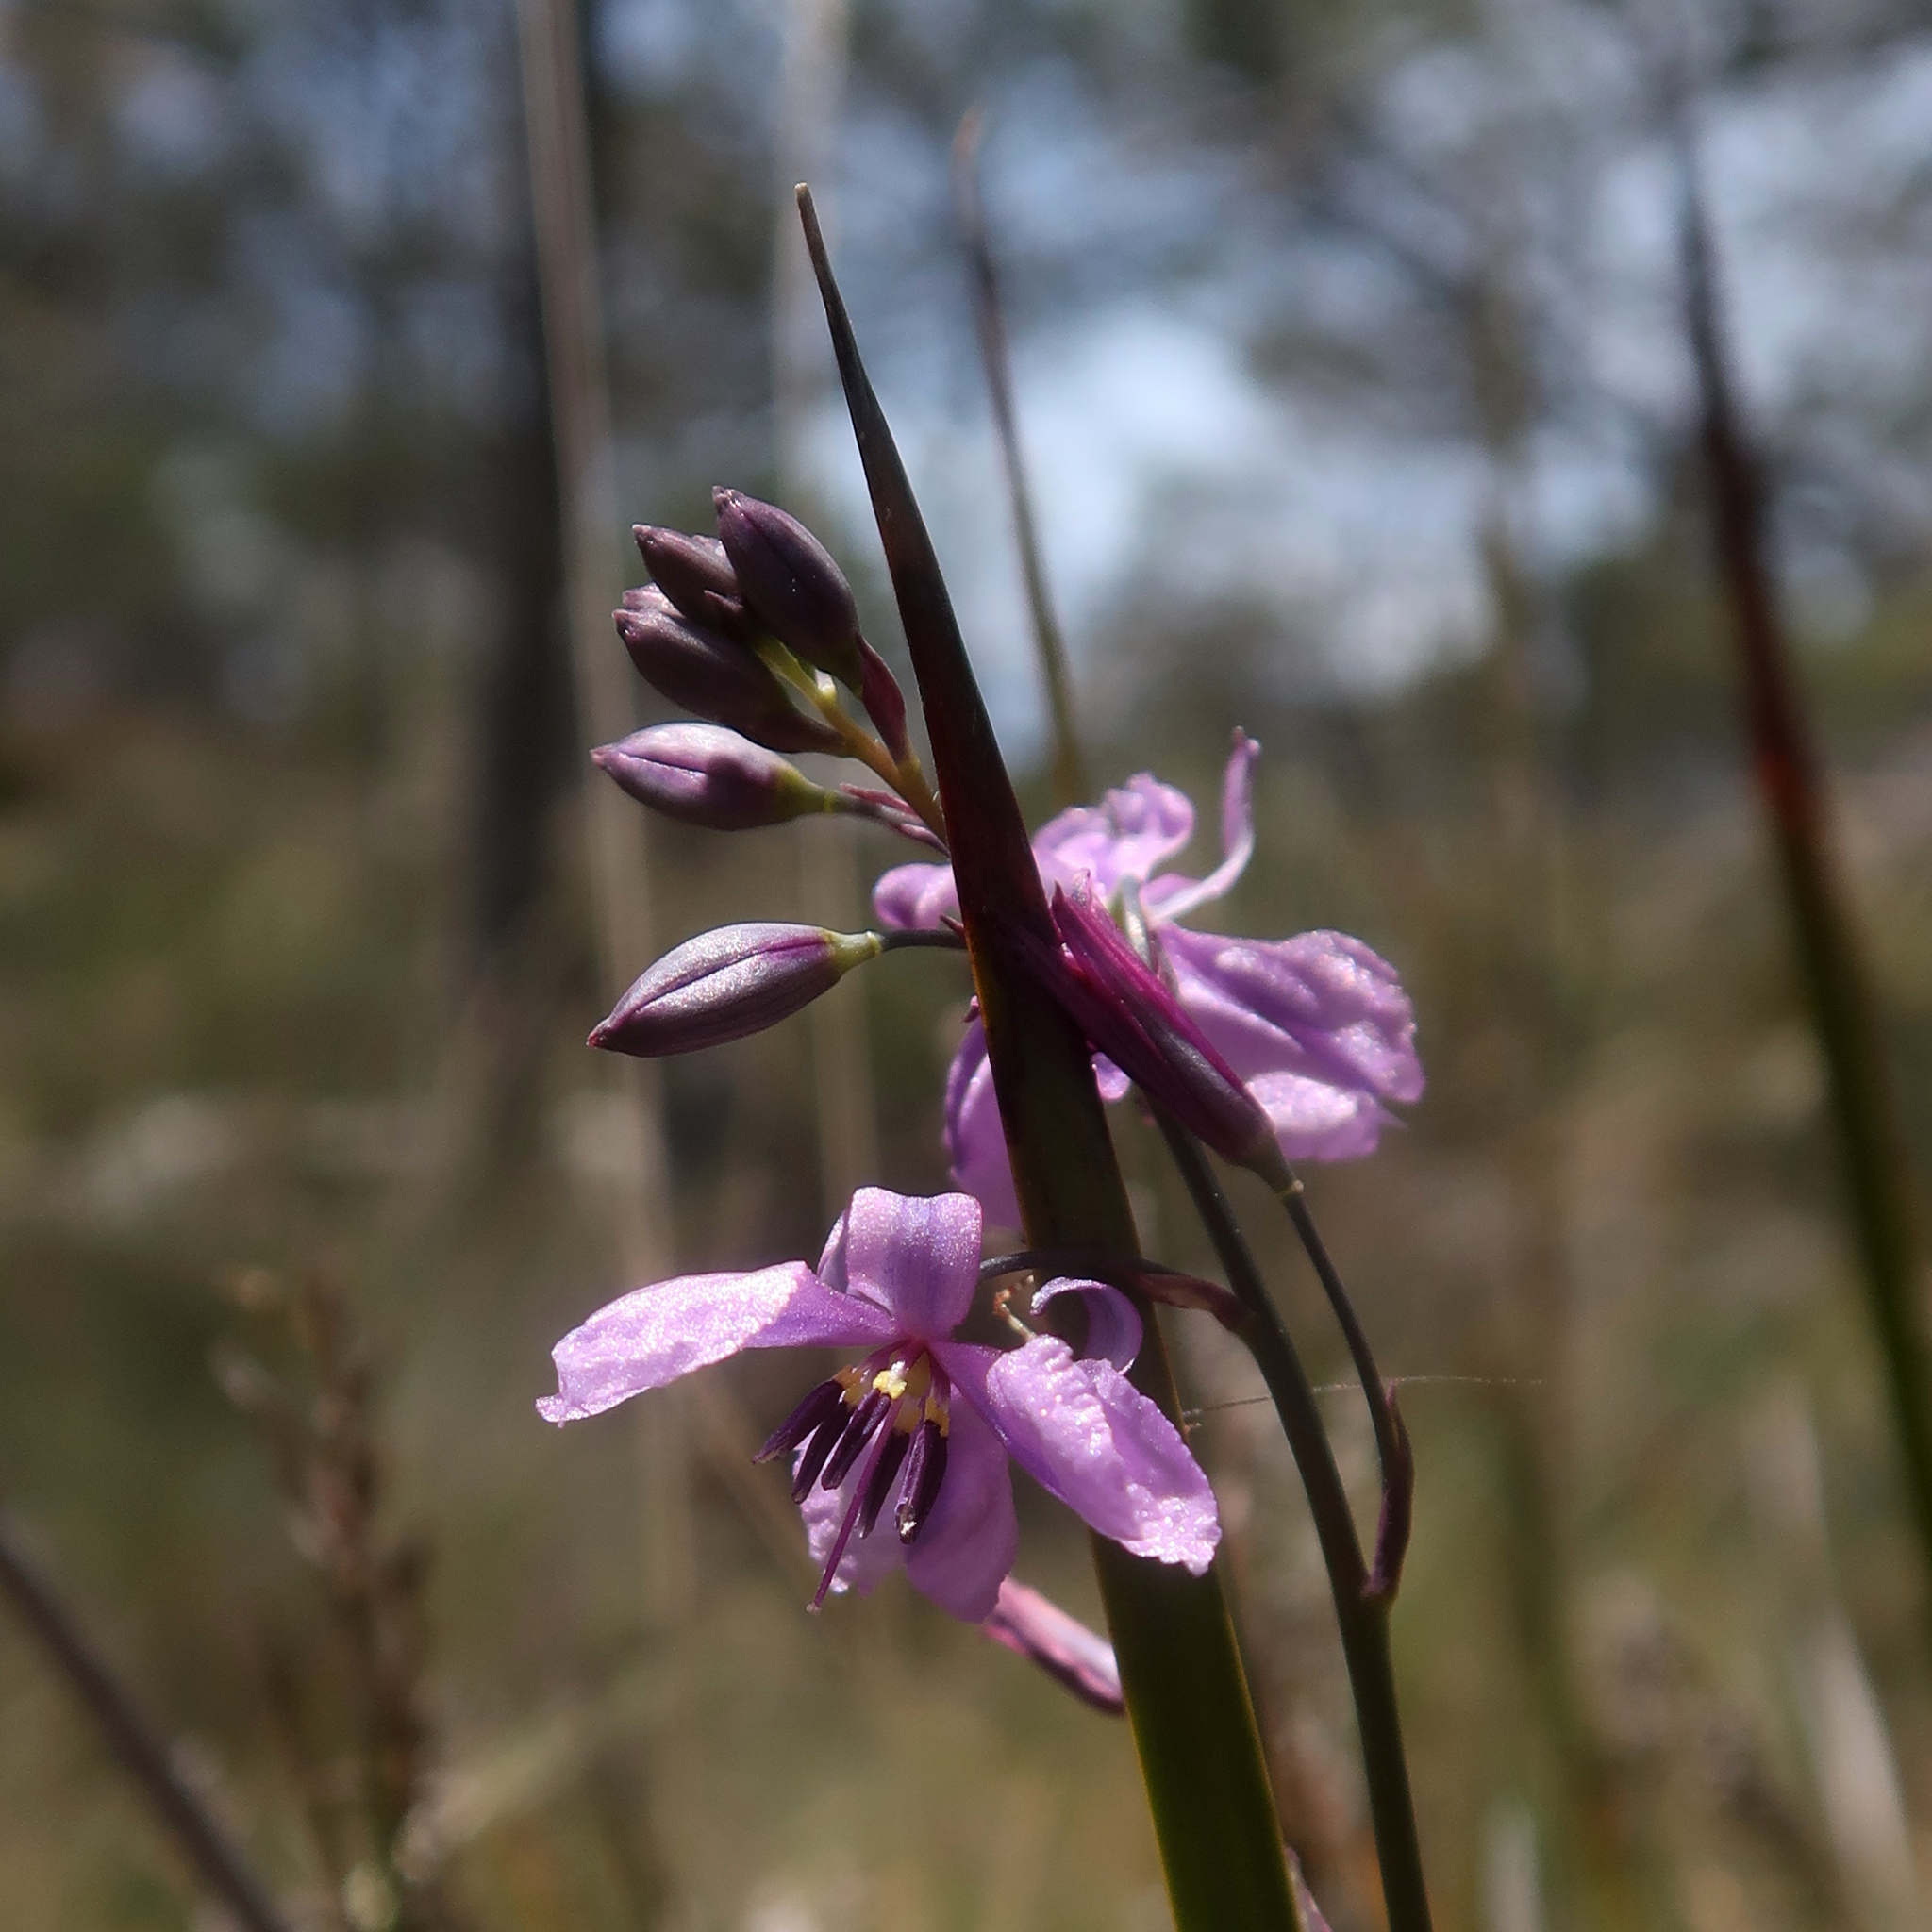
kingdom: Plantae
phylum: Tracheophyta
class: Liliopsida
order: Asparagales
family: Asparagaceae
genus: Arthropodium
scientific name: Arthropodium strictum
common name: Chocolate-lily
